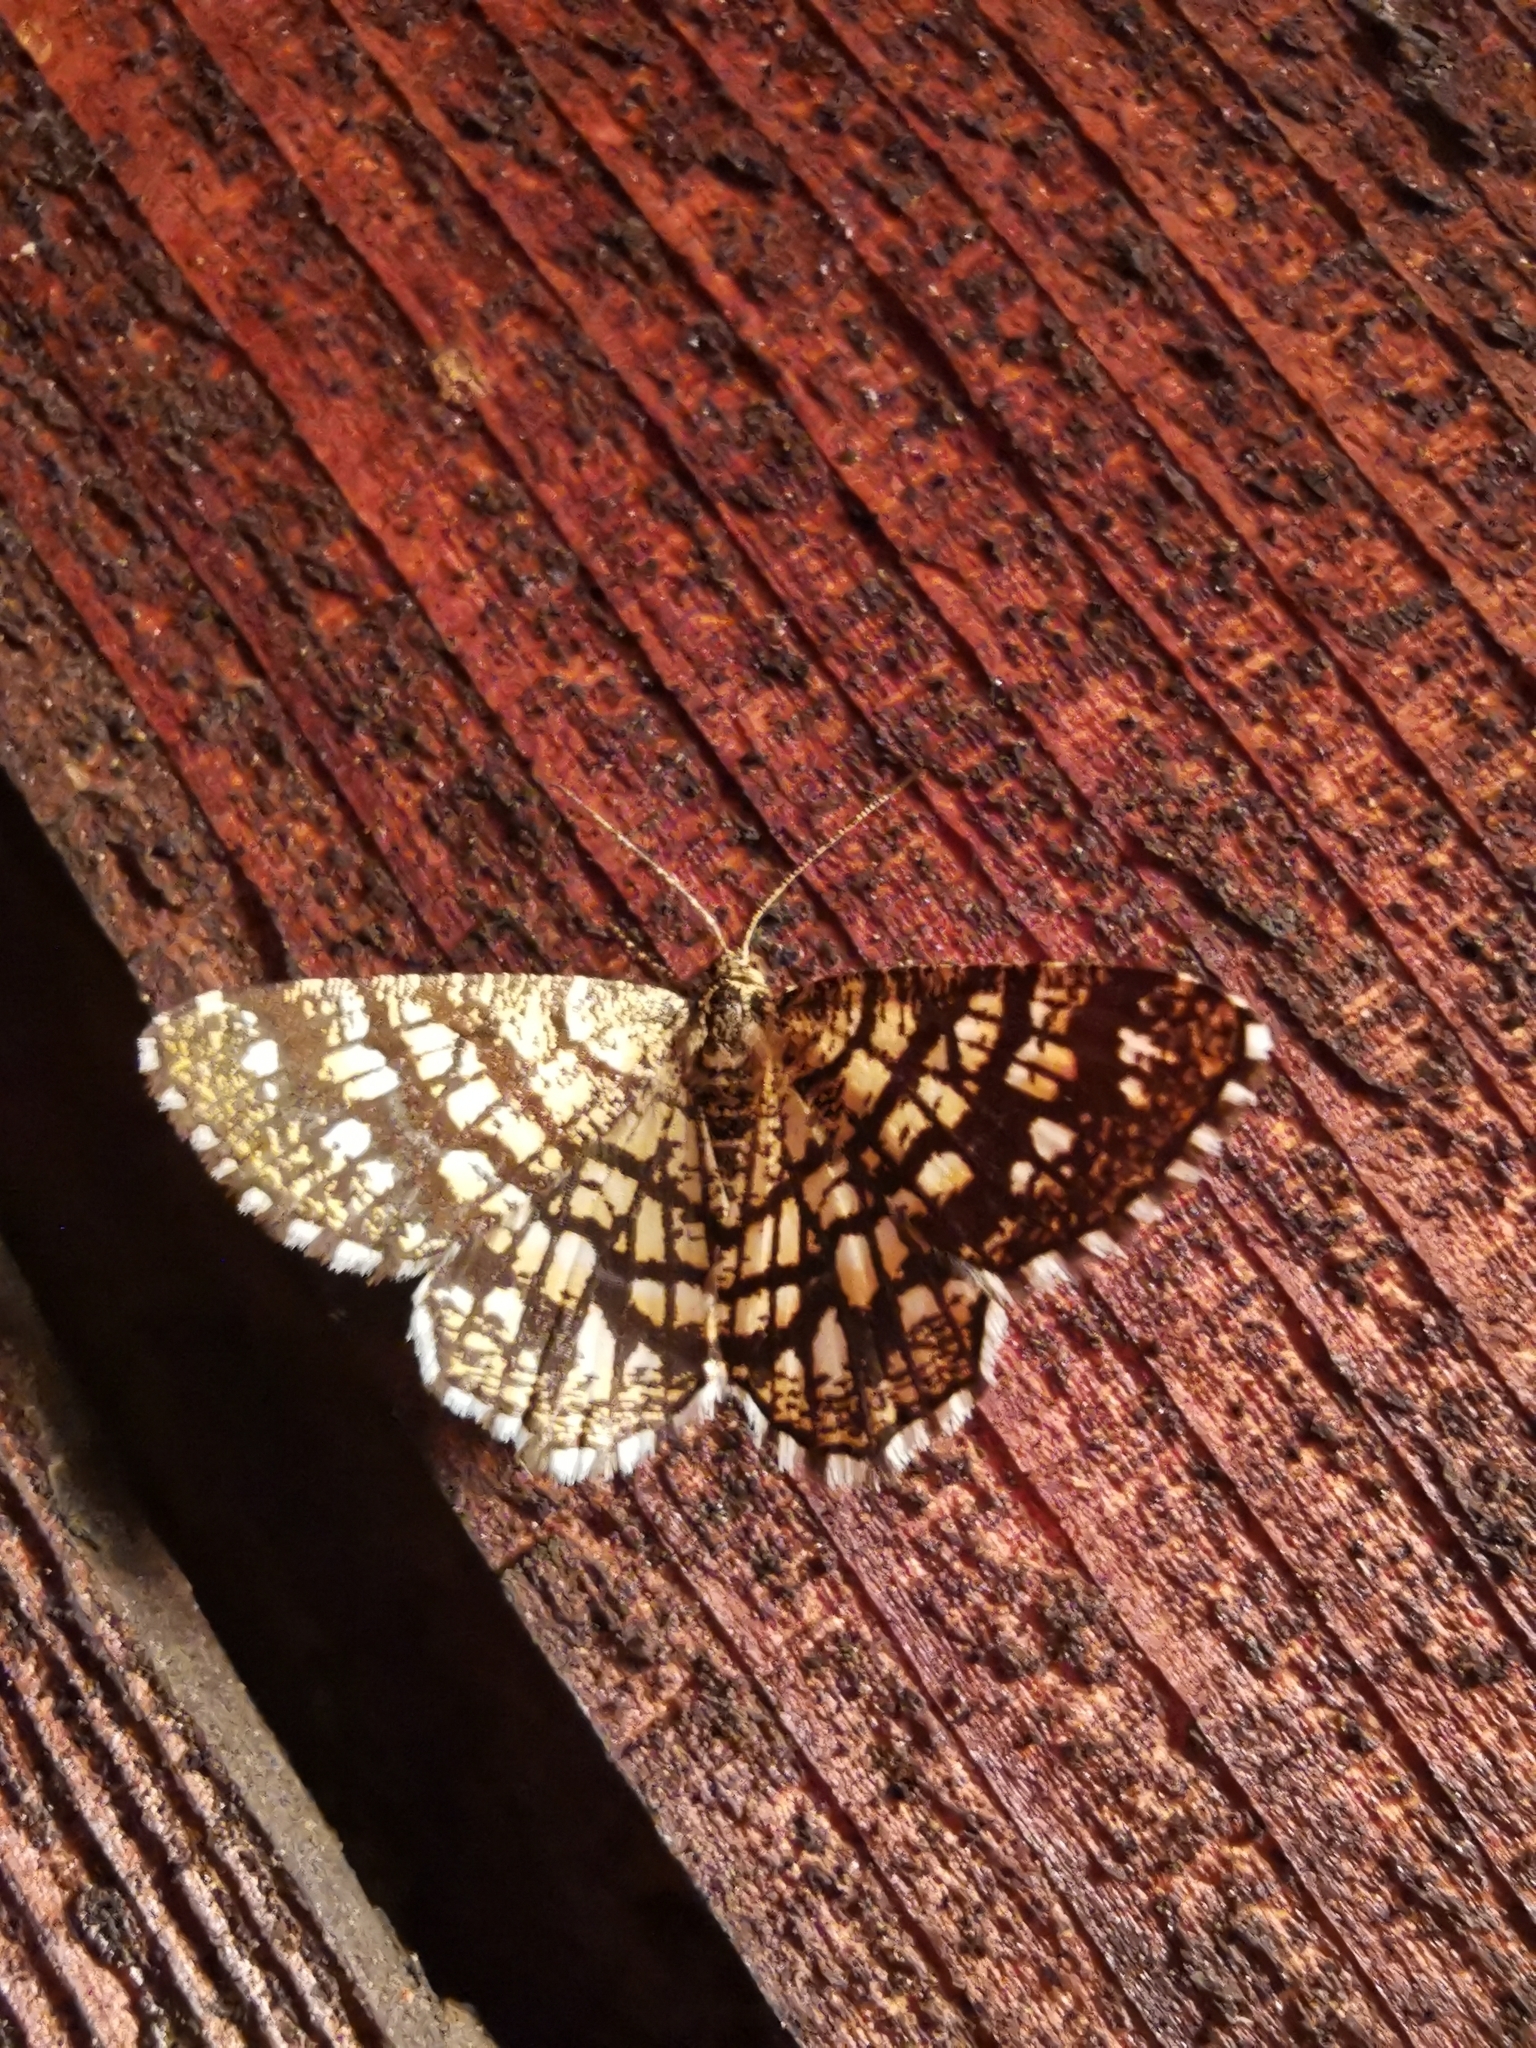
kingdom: Animalia
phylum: Arthropoda
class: Insecta
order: Lepidoptera
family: Geometridae
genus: Chiasmia
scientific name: Chiasmia clathrata
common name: Latticed heath
